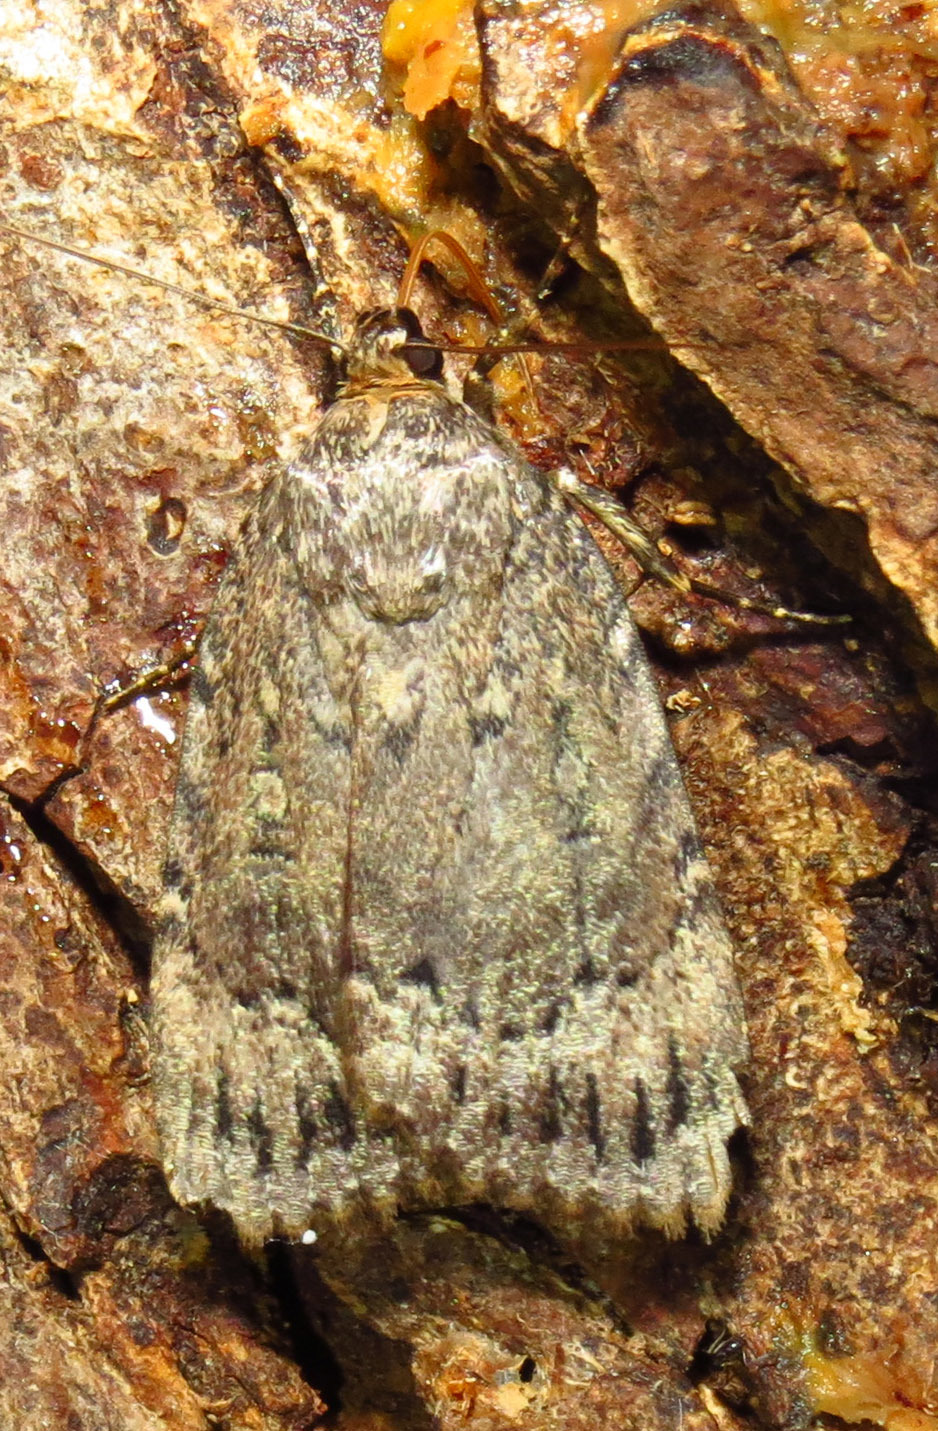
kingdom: Animalia
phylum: Arthropoda
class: Insecta
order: Lepidoptera
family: Noctuidae
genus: Amphipyra
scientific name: Amphipyra pyramidoides
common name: American copper underwing
